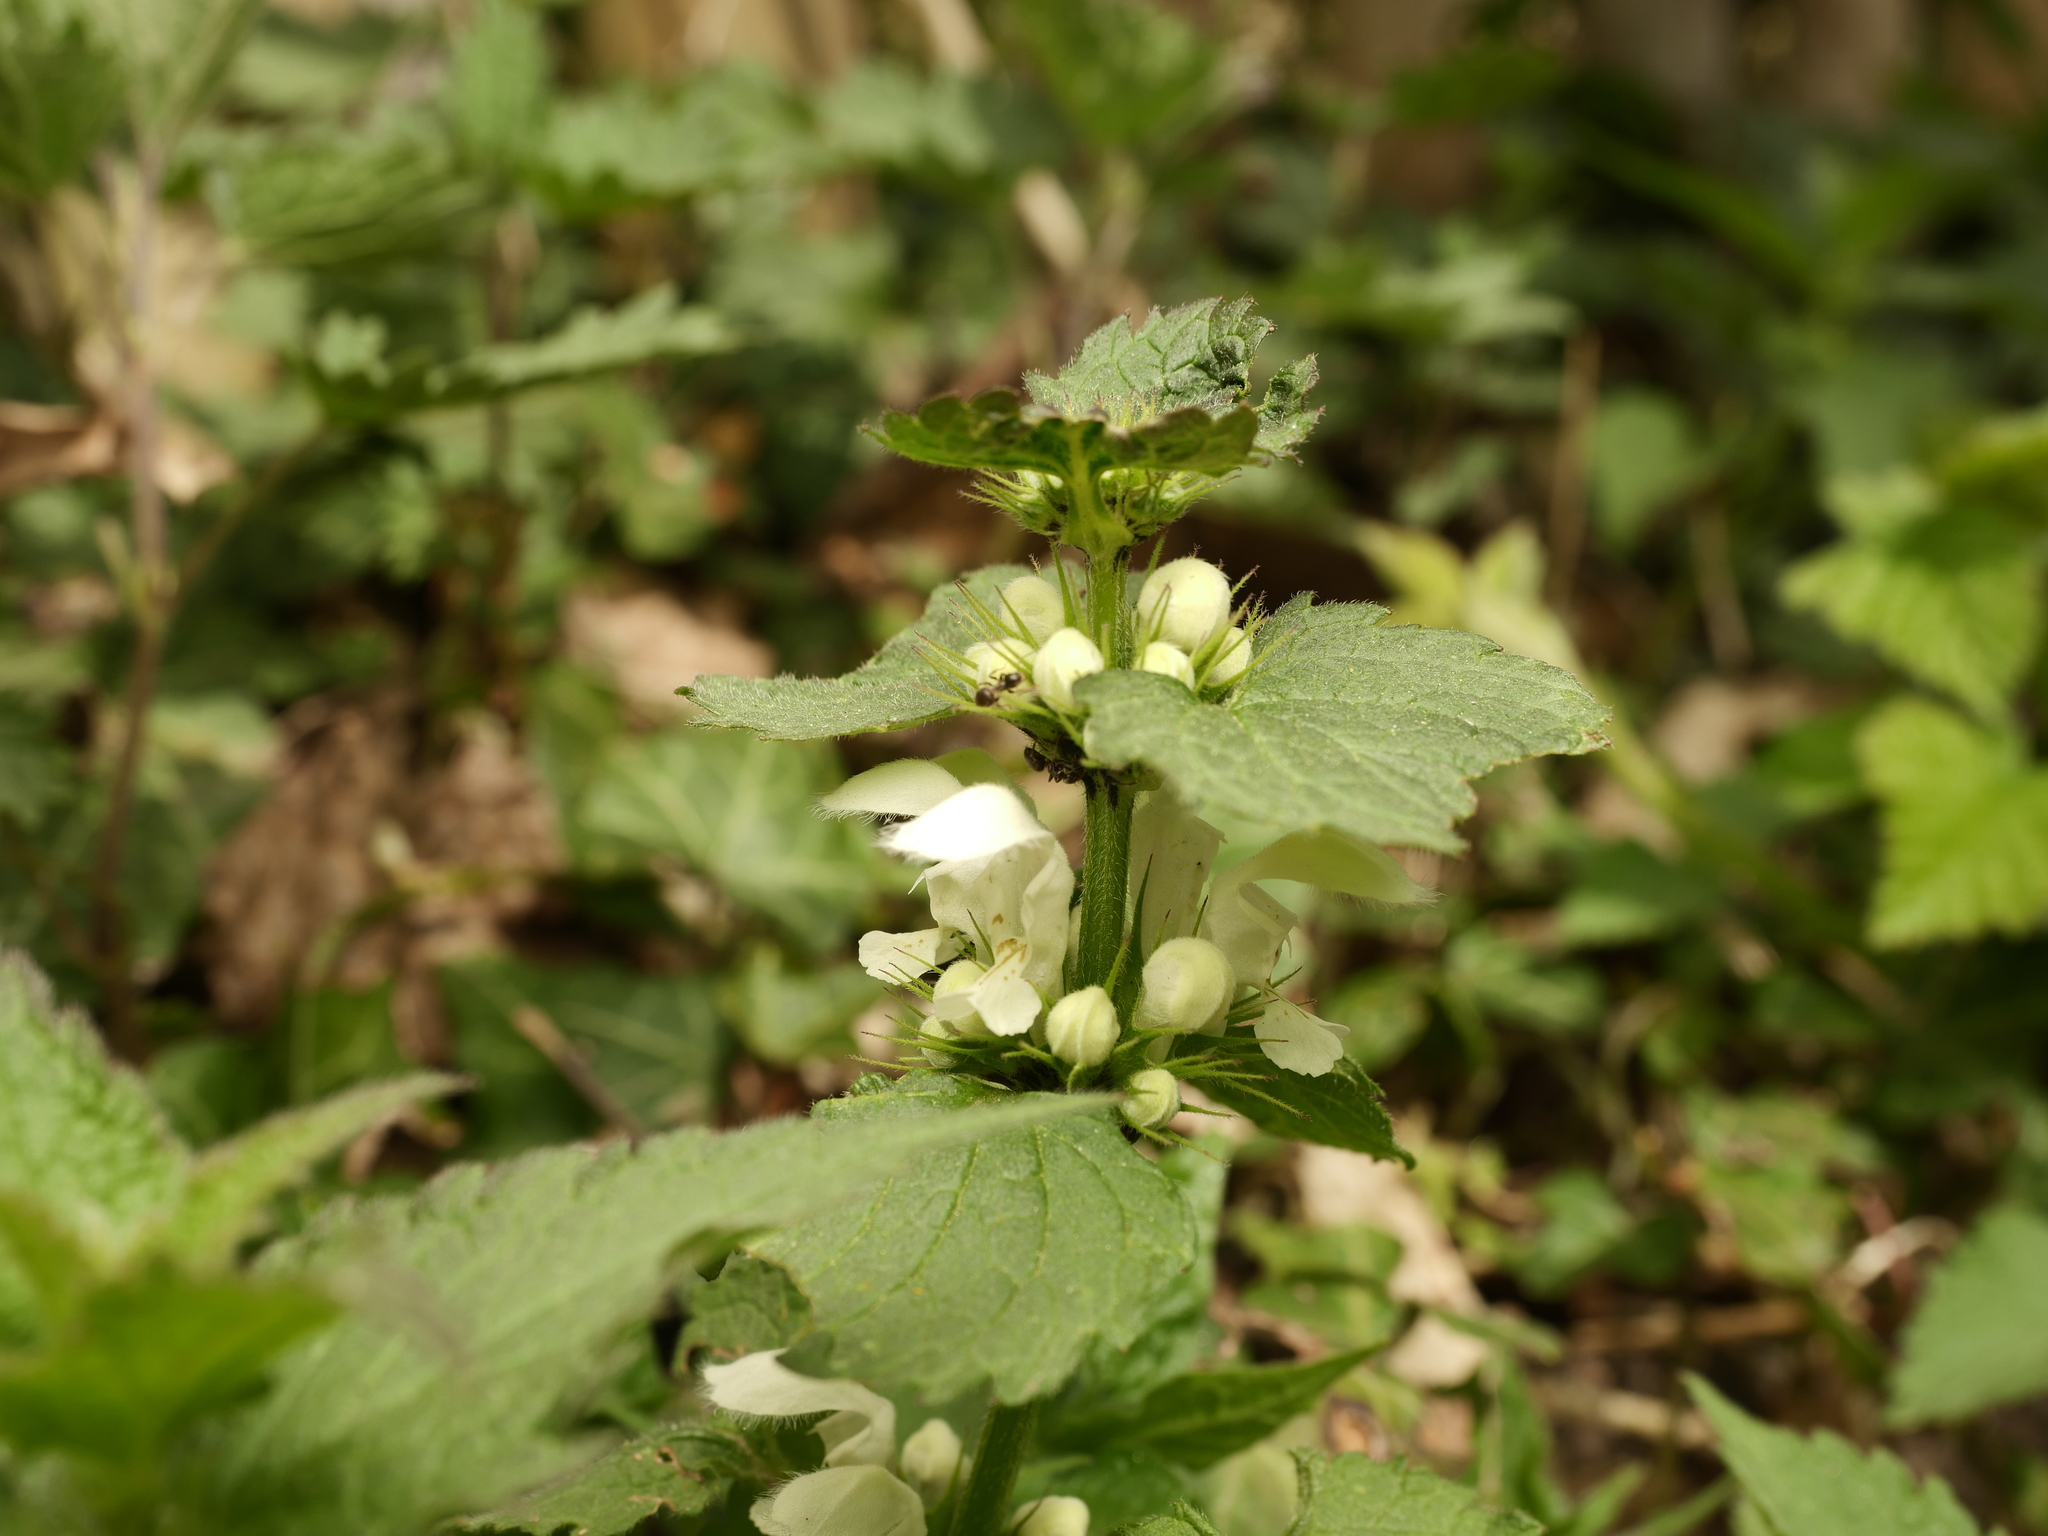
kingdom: Plantae
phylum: Tracheophyta
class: Magnoliopsida
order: Lamiales
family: Lamiaceae
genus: Lamium
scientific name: Lamium album
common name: White dead-nettle
